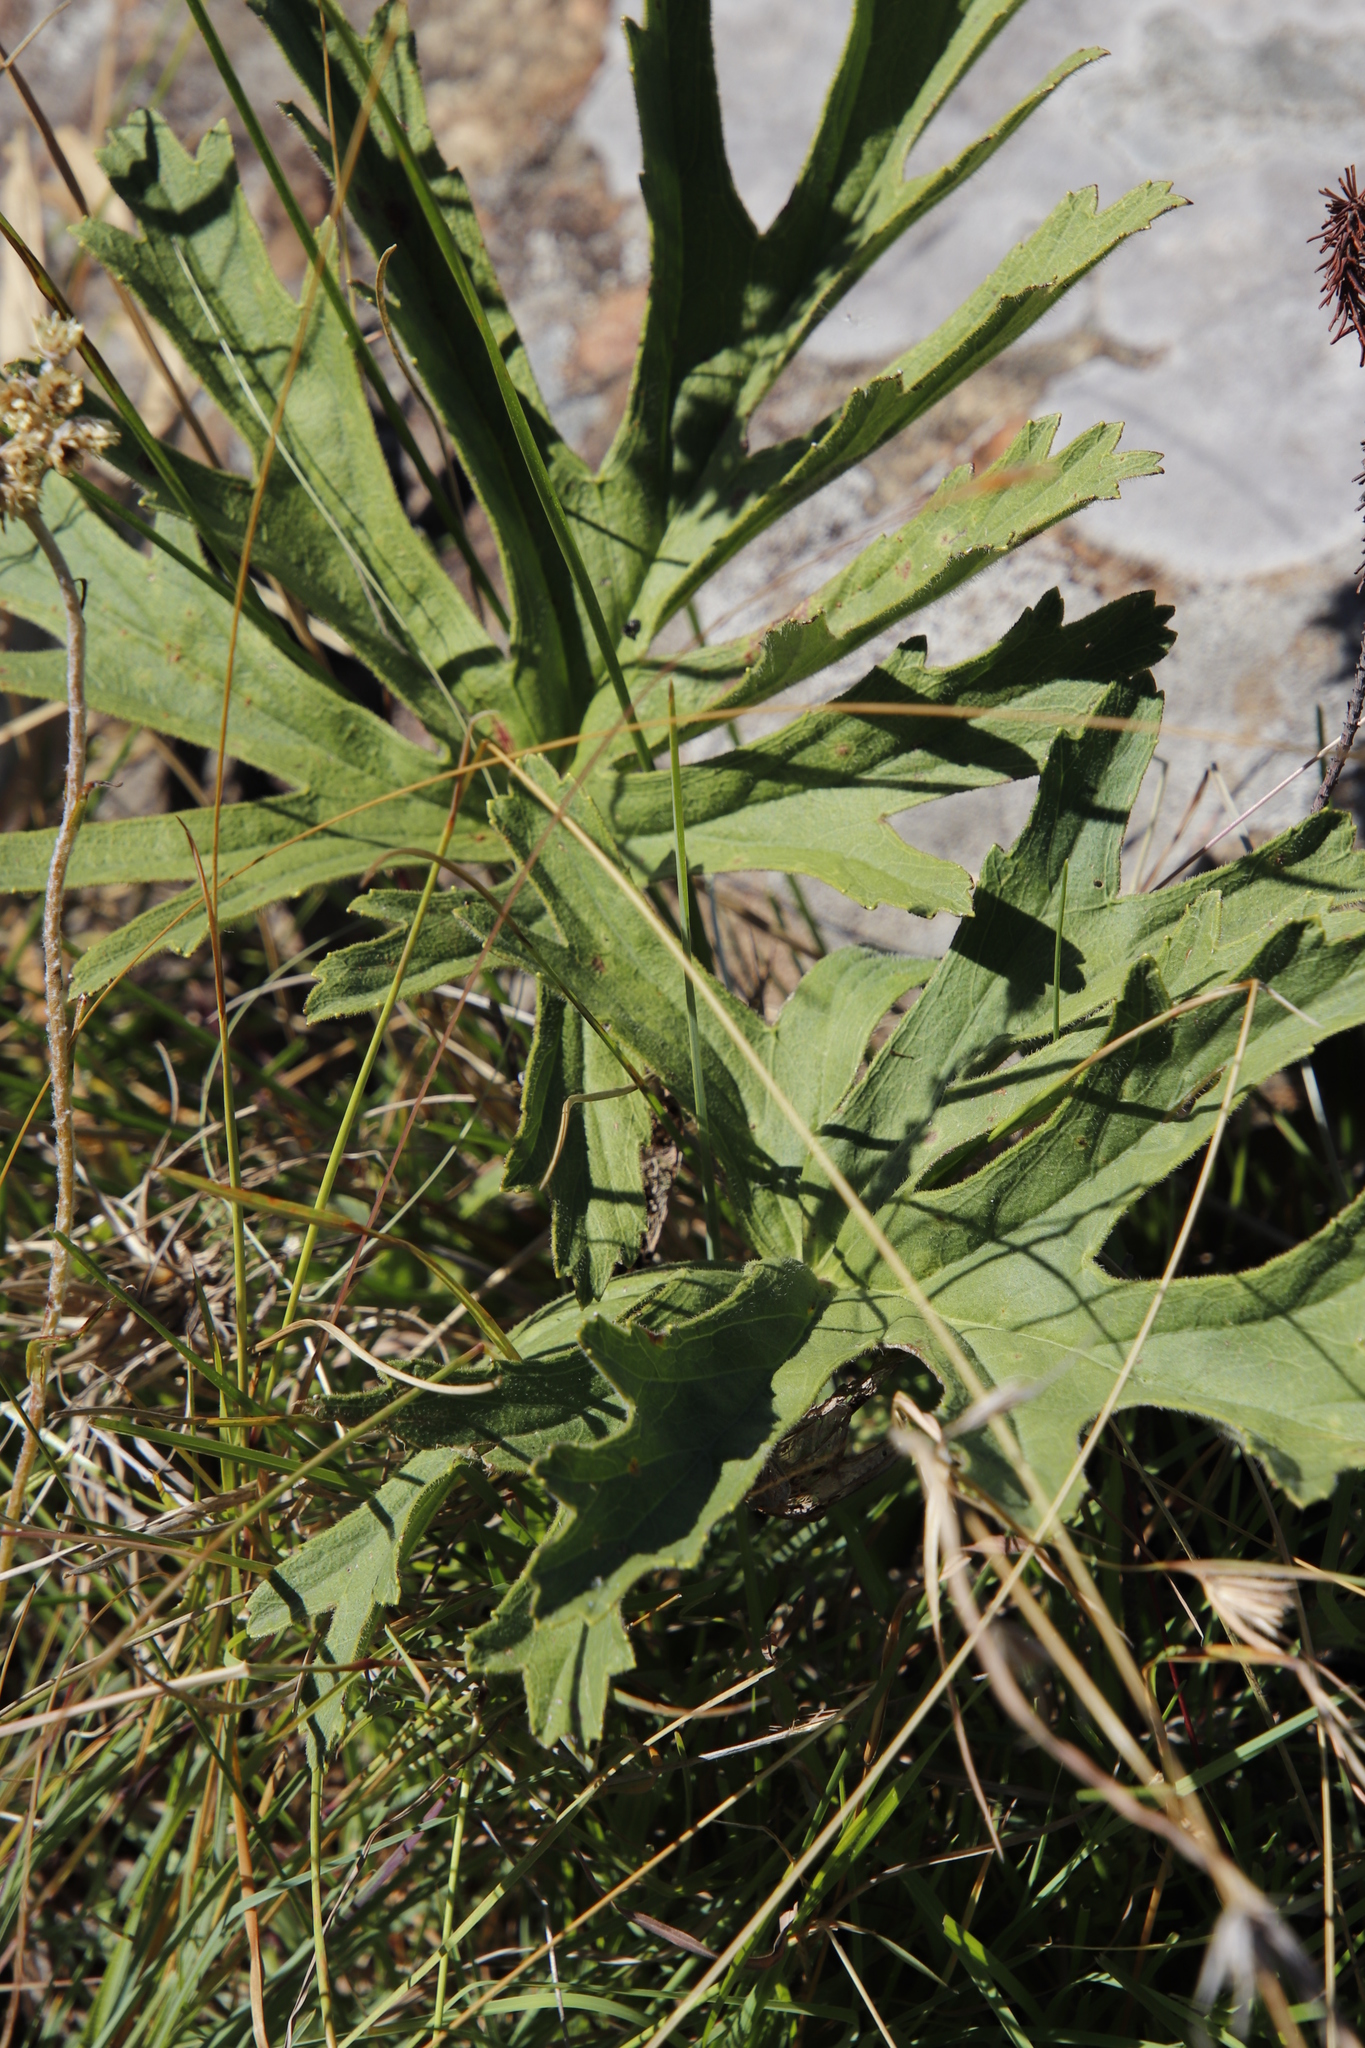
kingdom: Plantae
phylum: Tracheophyta
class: Magnoliopsida
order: Geraniales
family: Geraniaceae
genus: Pelargonium
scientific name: Pelargonium luridum
